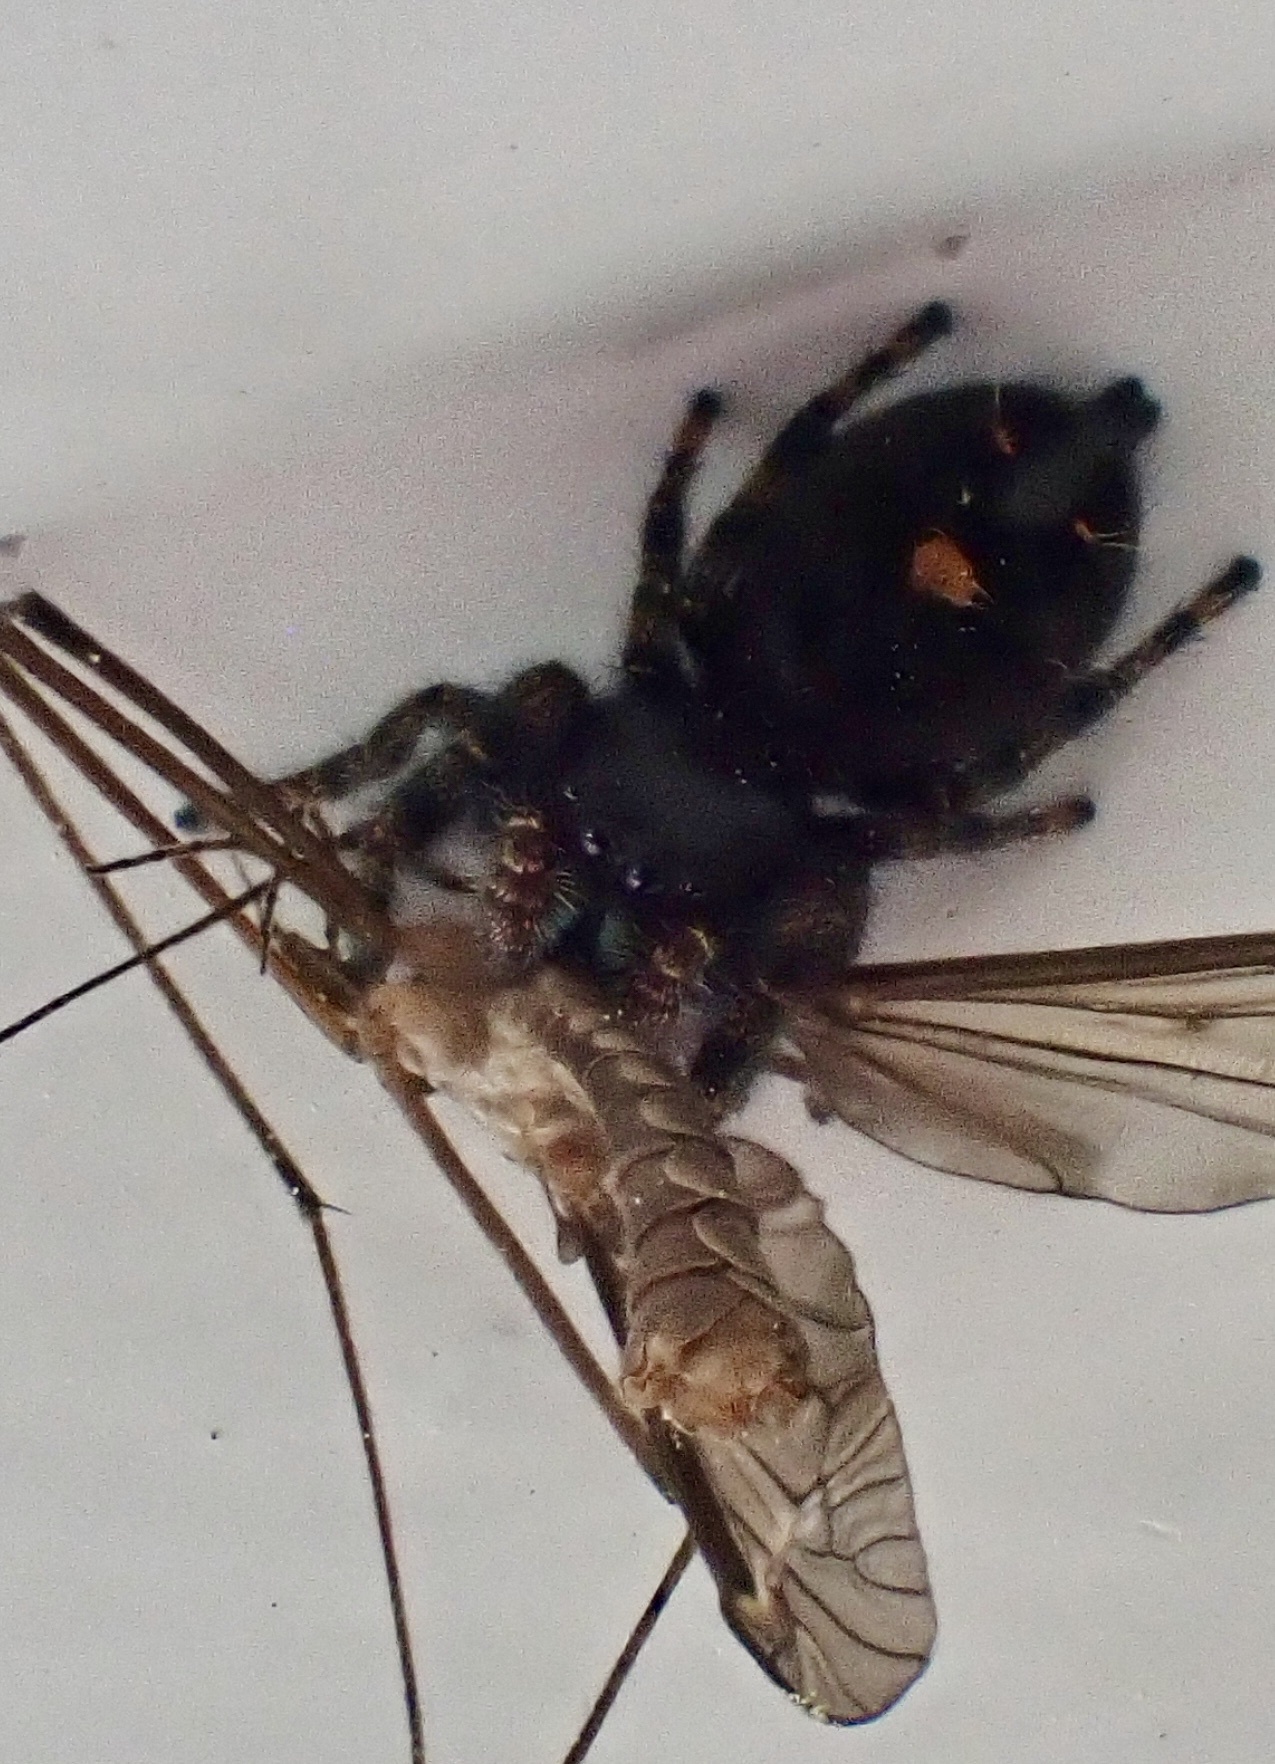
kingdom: Animalia
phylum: Arthropoda
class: Arachnida
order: Araneae
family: Salticidae
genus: Phidippus
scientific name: Phidippus audax
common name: Bold jumper
